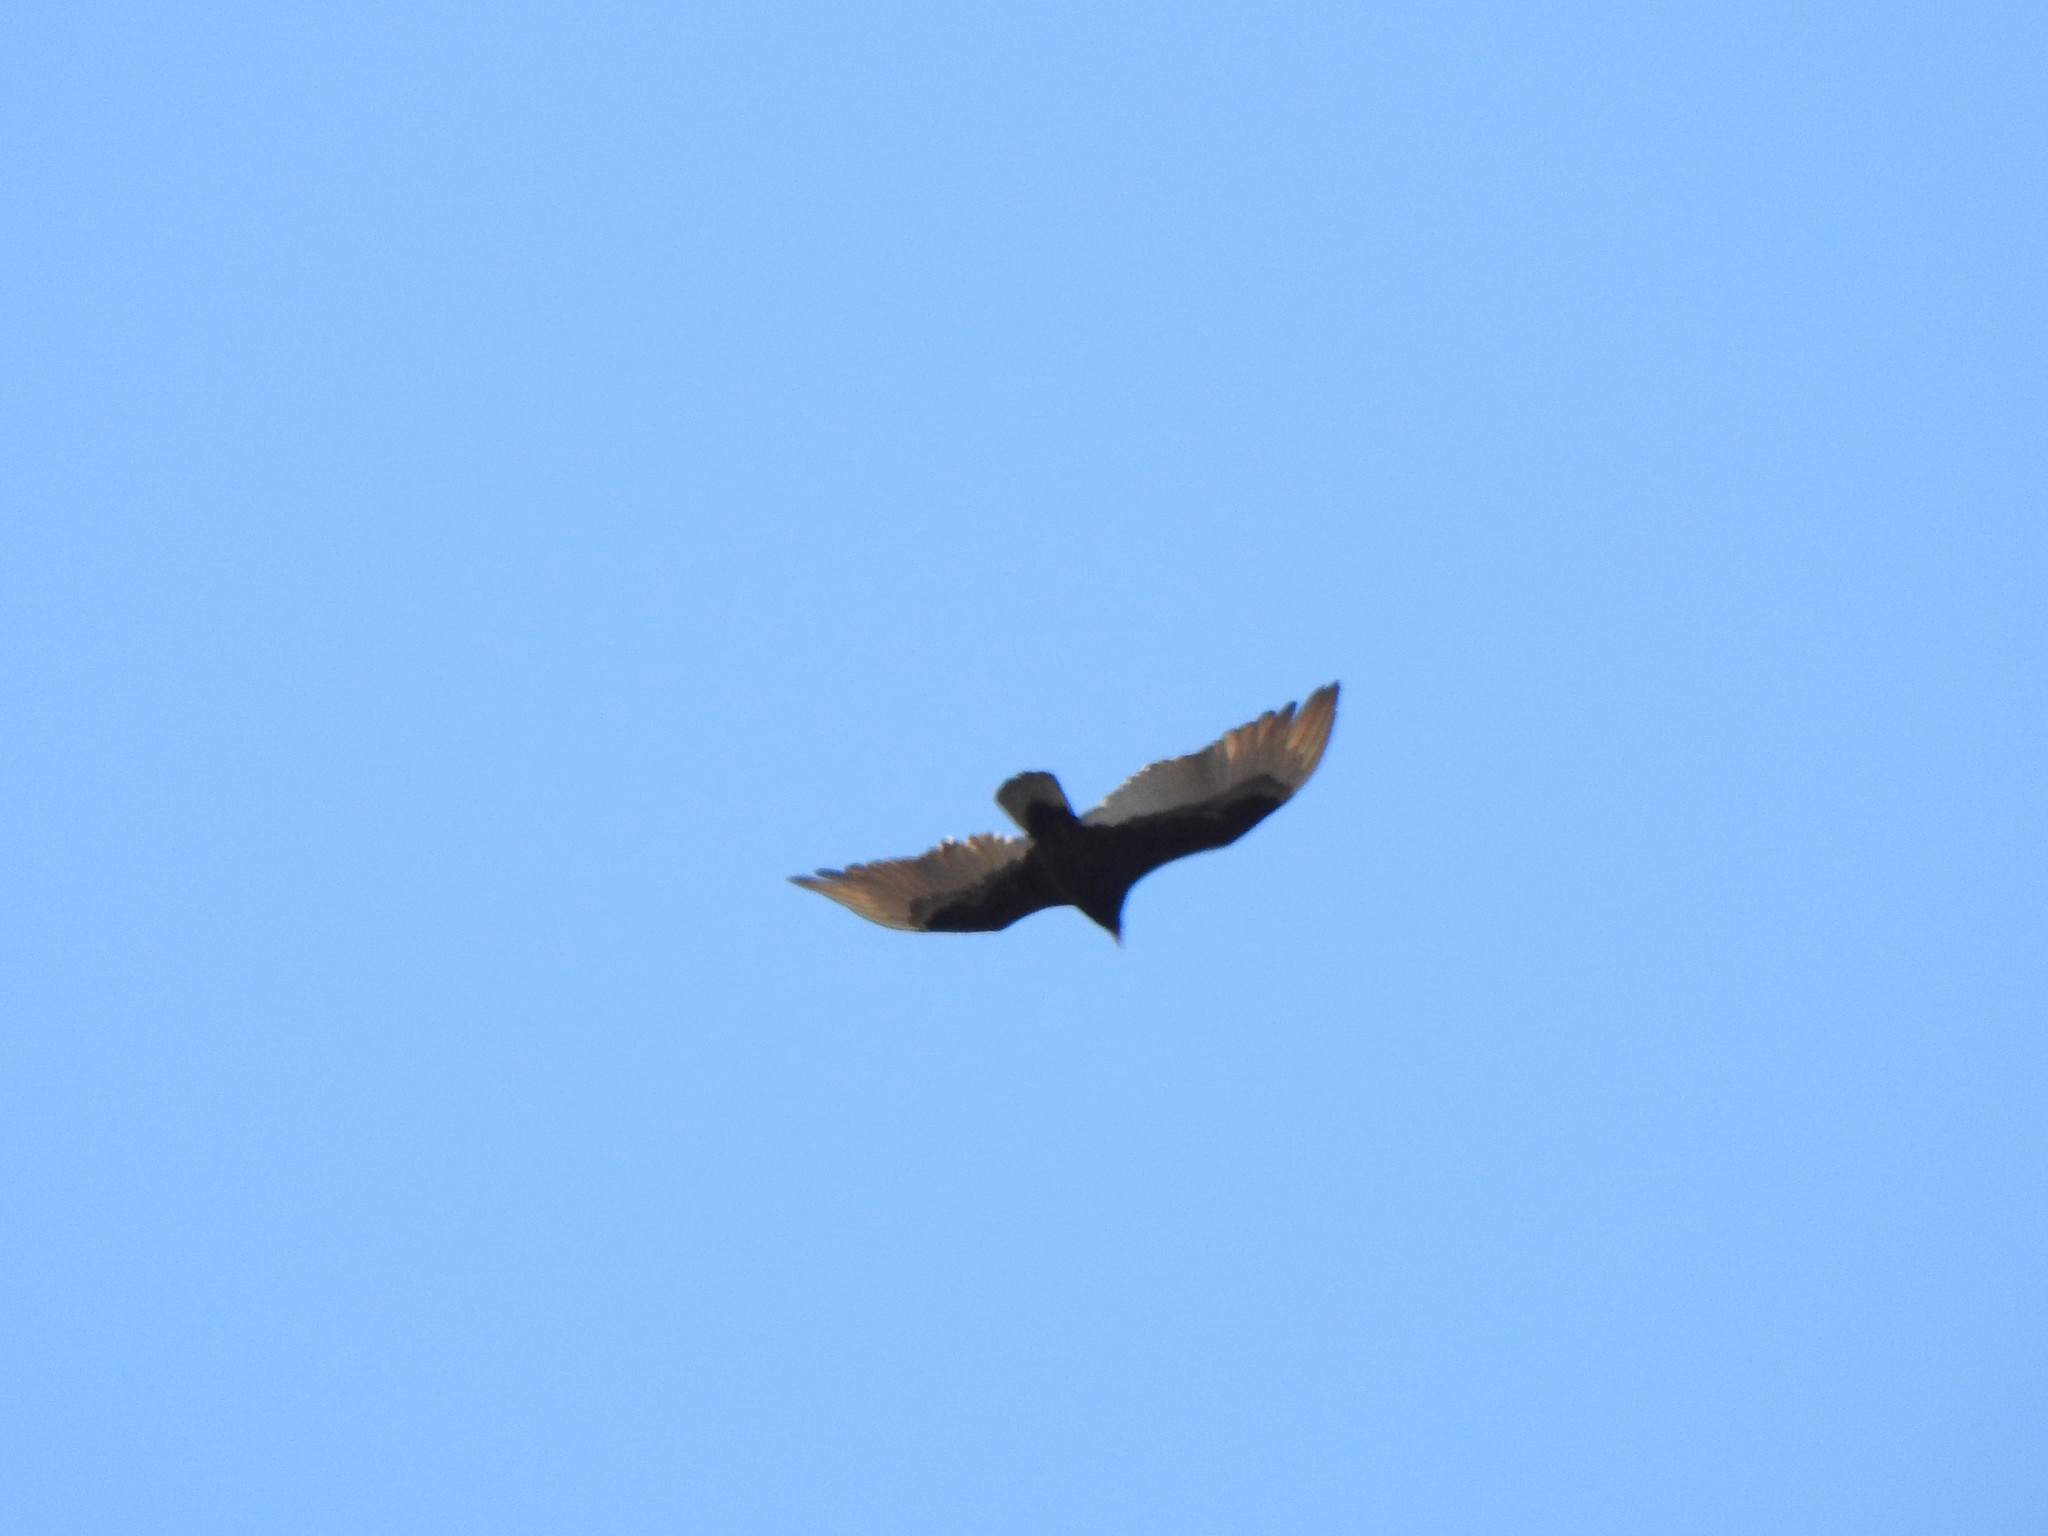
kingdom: Animalia
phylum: Chordata
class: Aves
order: Accipitriformes
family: Cathartidae
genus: Cathartes
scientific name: Cathartes aura
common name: Turkey vulture
